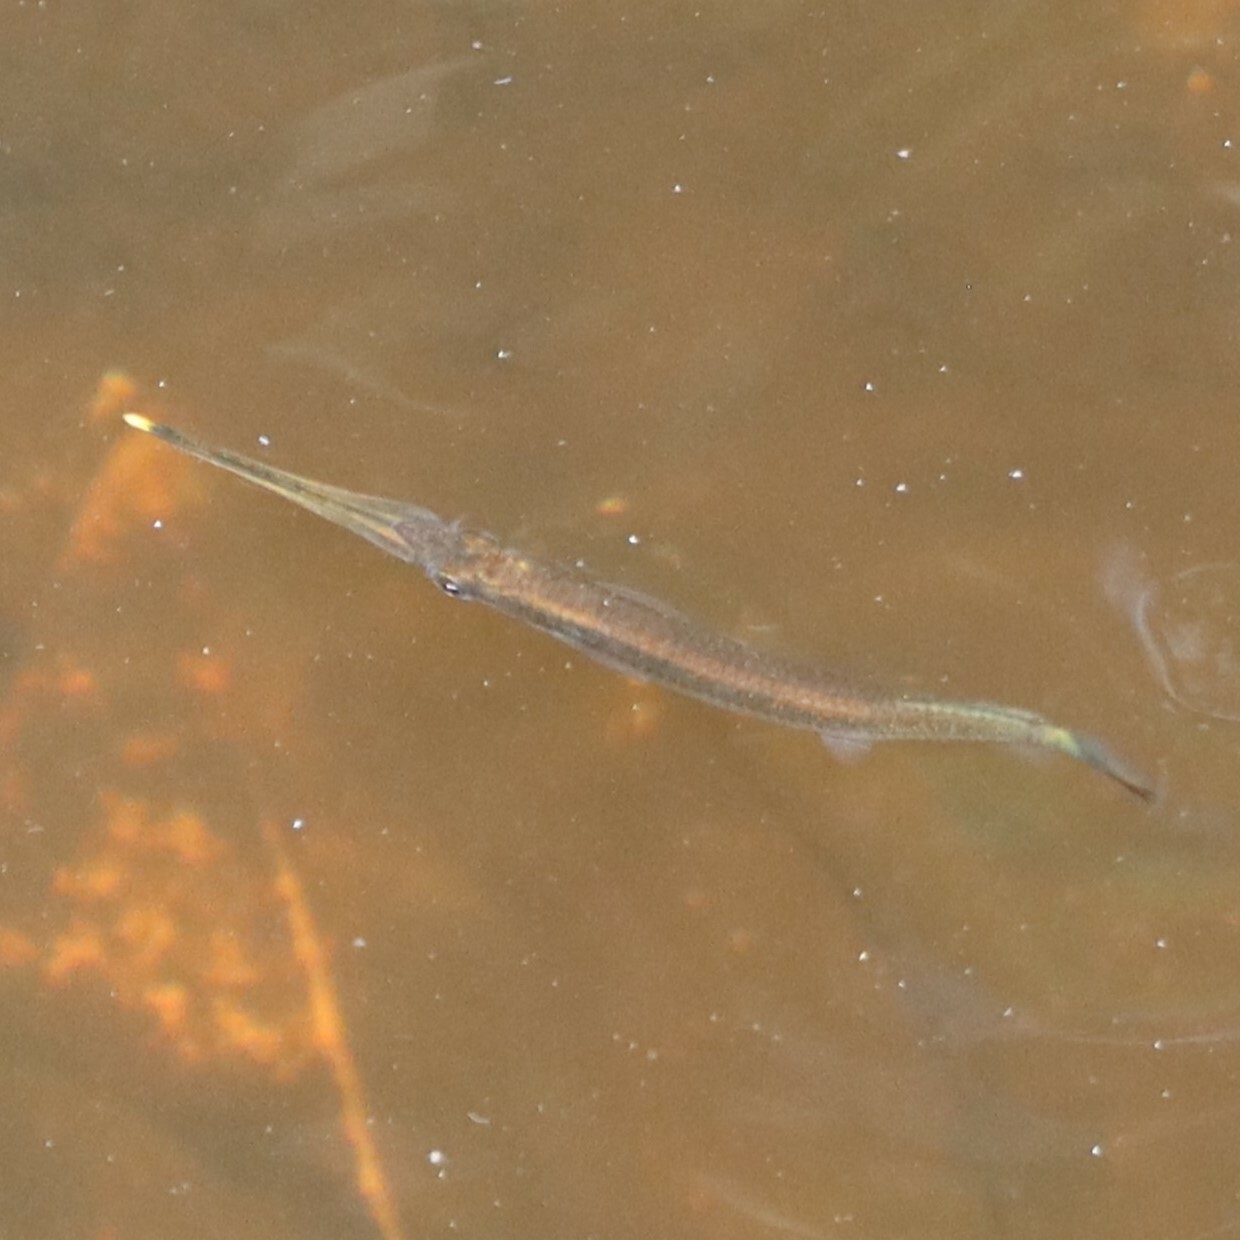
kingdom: Animalia
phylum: Chordata
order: Beloniformes
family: Zenarchopteridae
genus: Zenarchopterus
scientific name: Zenarchopterus buffonis
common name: Buffon's river-garfish
